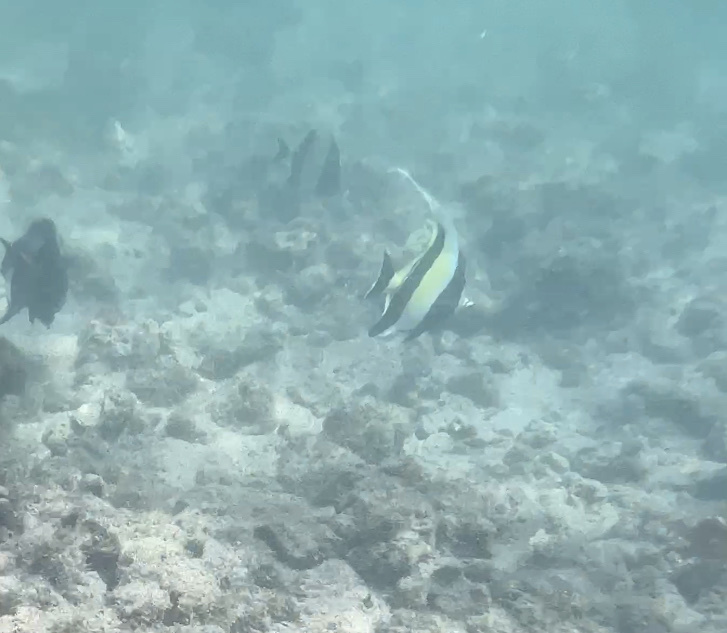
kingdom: Animalia
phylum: Chordata
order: Perciformes
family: Zanclidae
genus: Zanclus
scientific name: Zanclus cornutus
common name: Moorish idol
